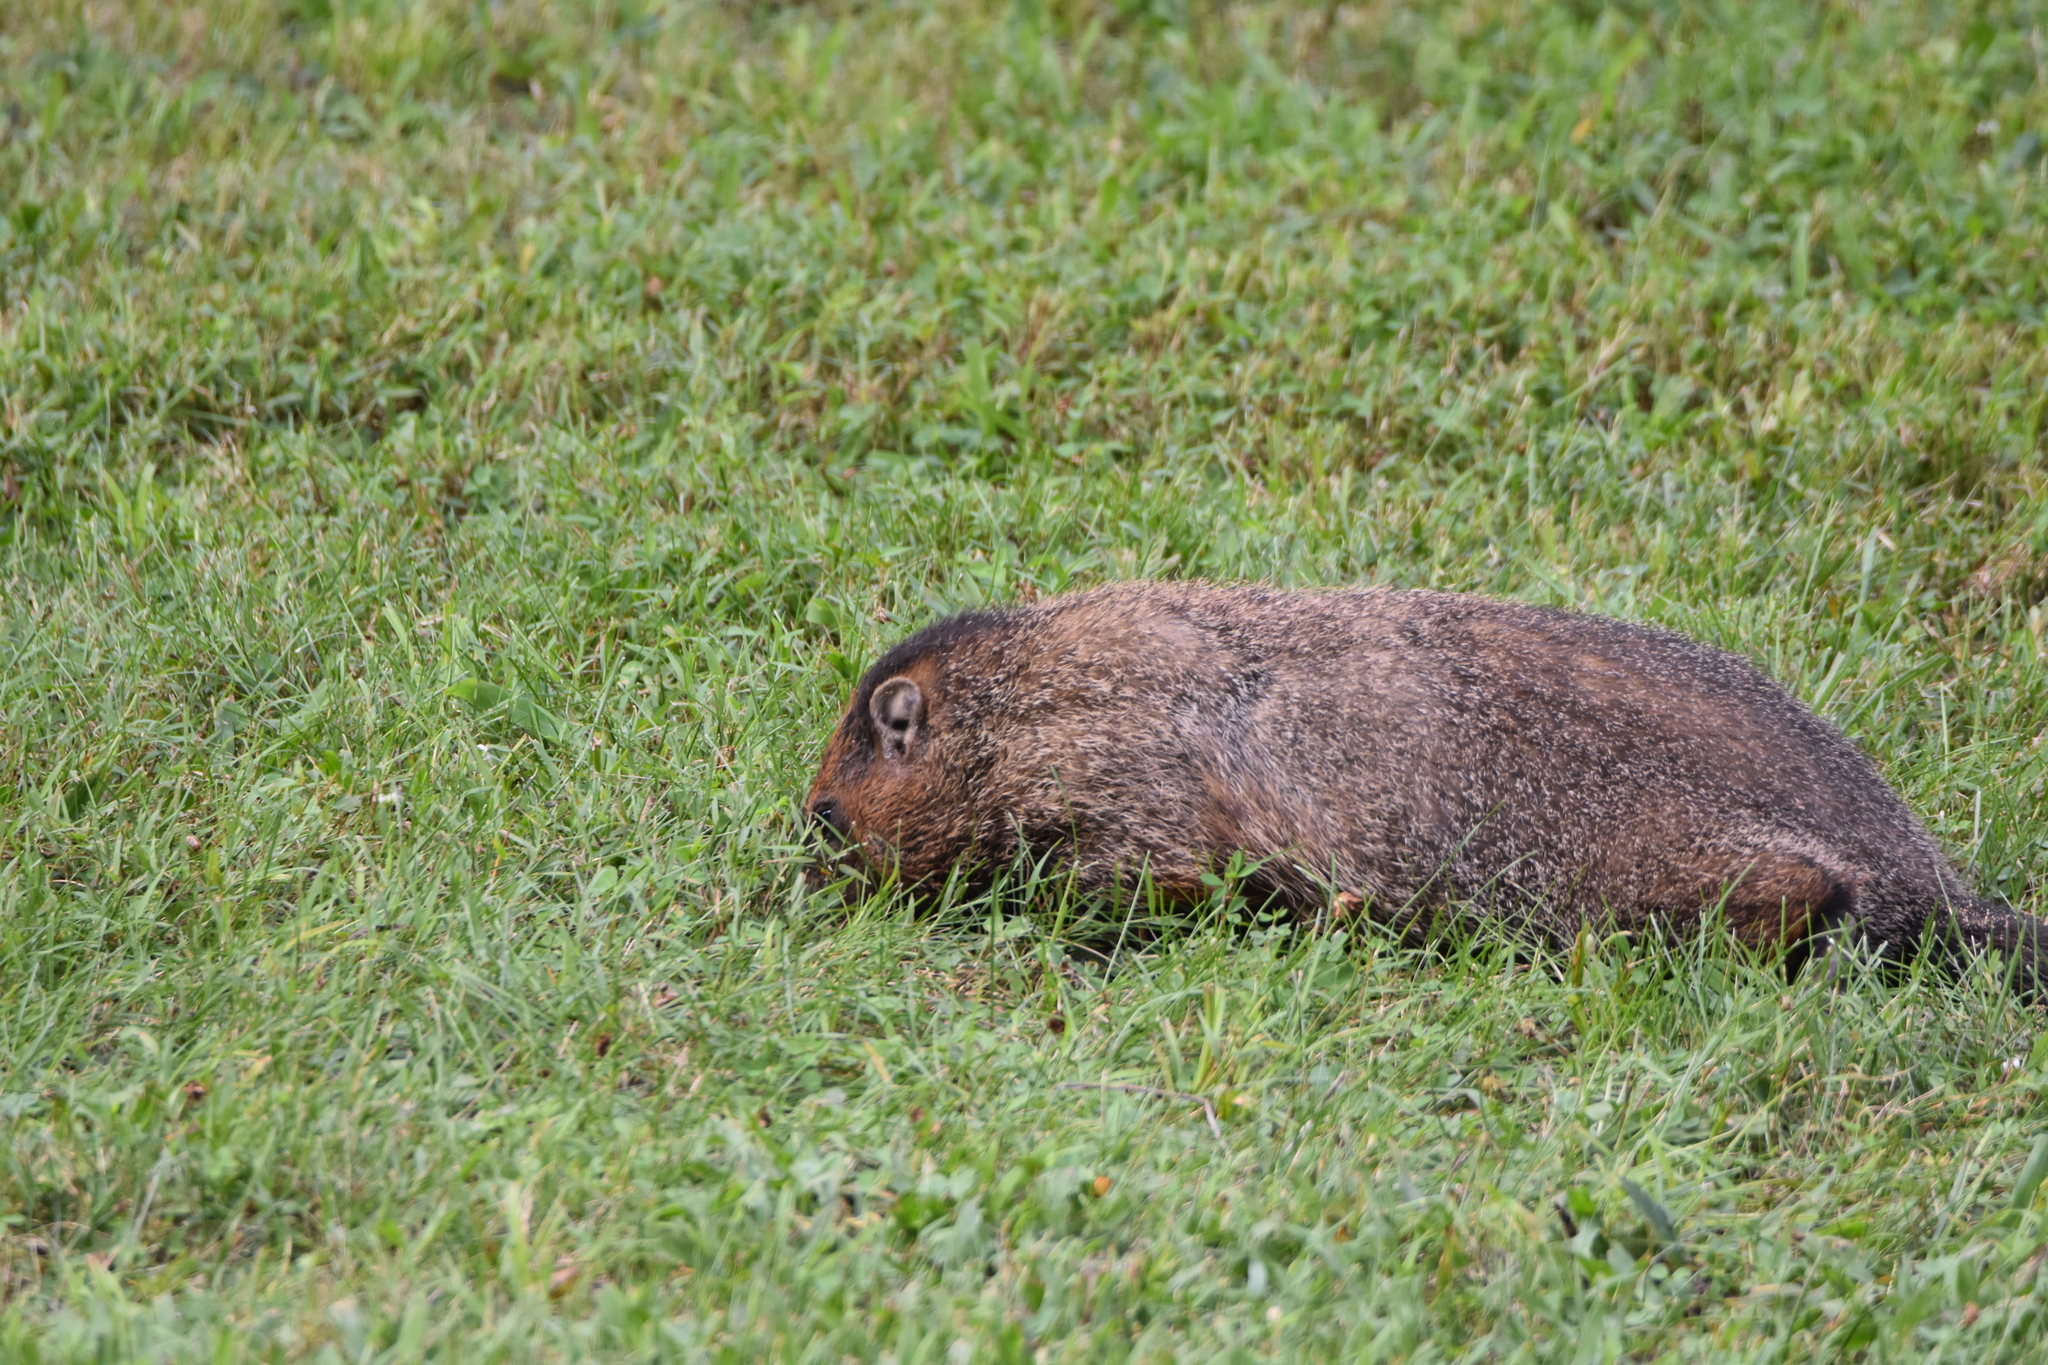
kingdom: Animalia
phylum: Chordata
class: Mammalia
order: Rodentia
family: Sciuridae
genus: Marmota
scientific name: Marmota monax
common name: Groundhog
